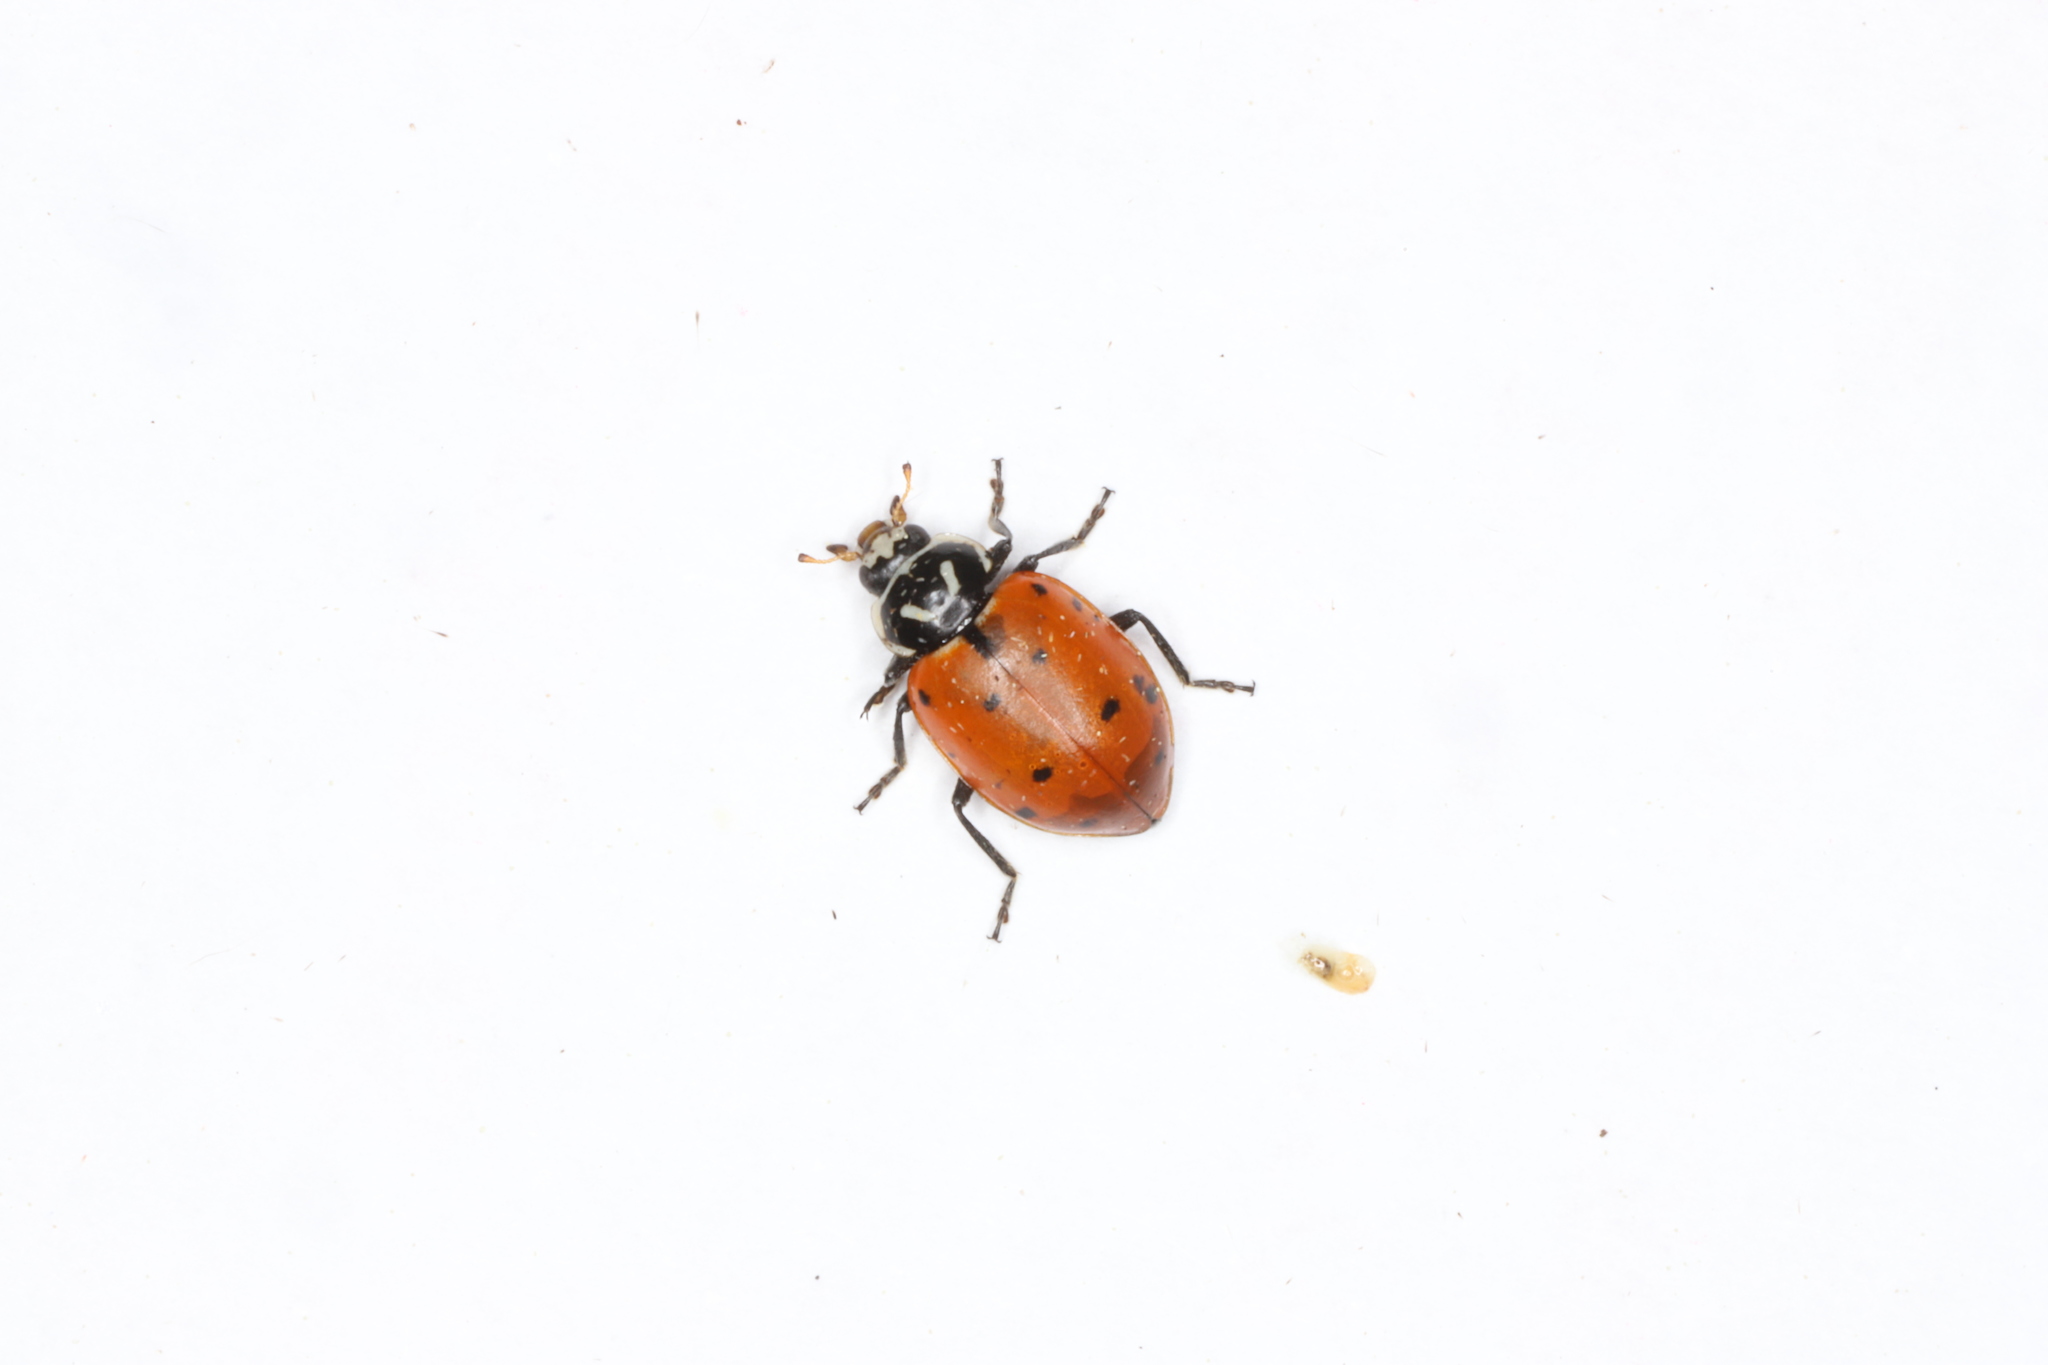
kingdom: Animalia
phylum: Arthropoda
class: Insecta
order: Coleoptera
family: Coccinellidae
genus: Hippodamia
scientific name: Hippodamia convergens
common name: Convergent lady beetle
